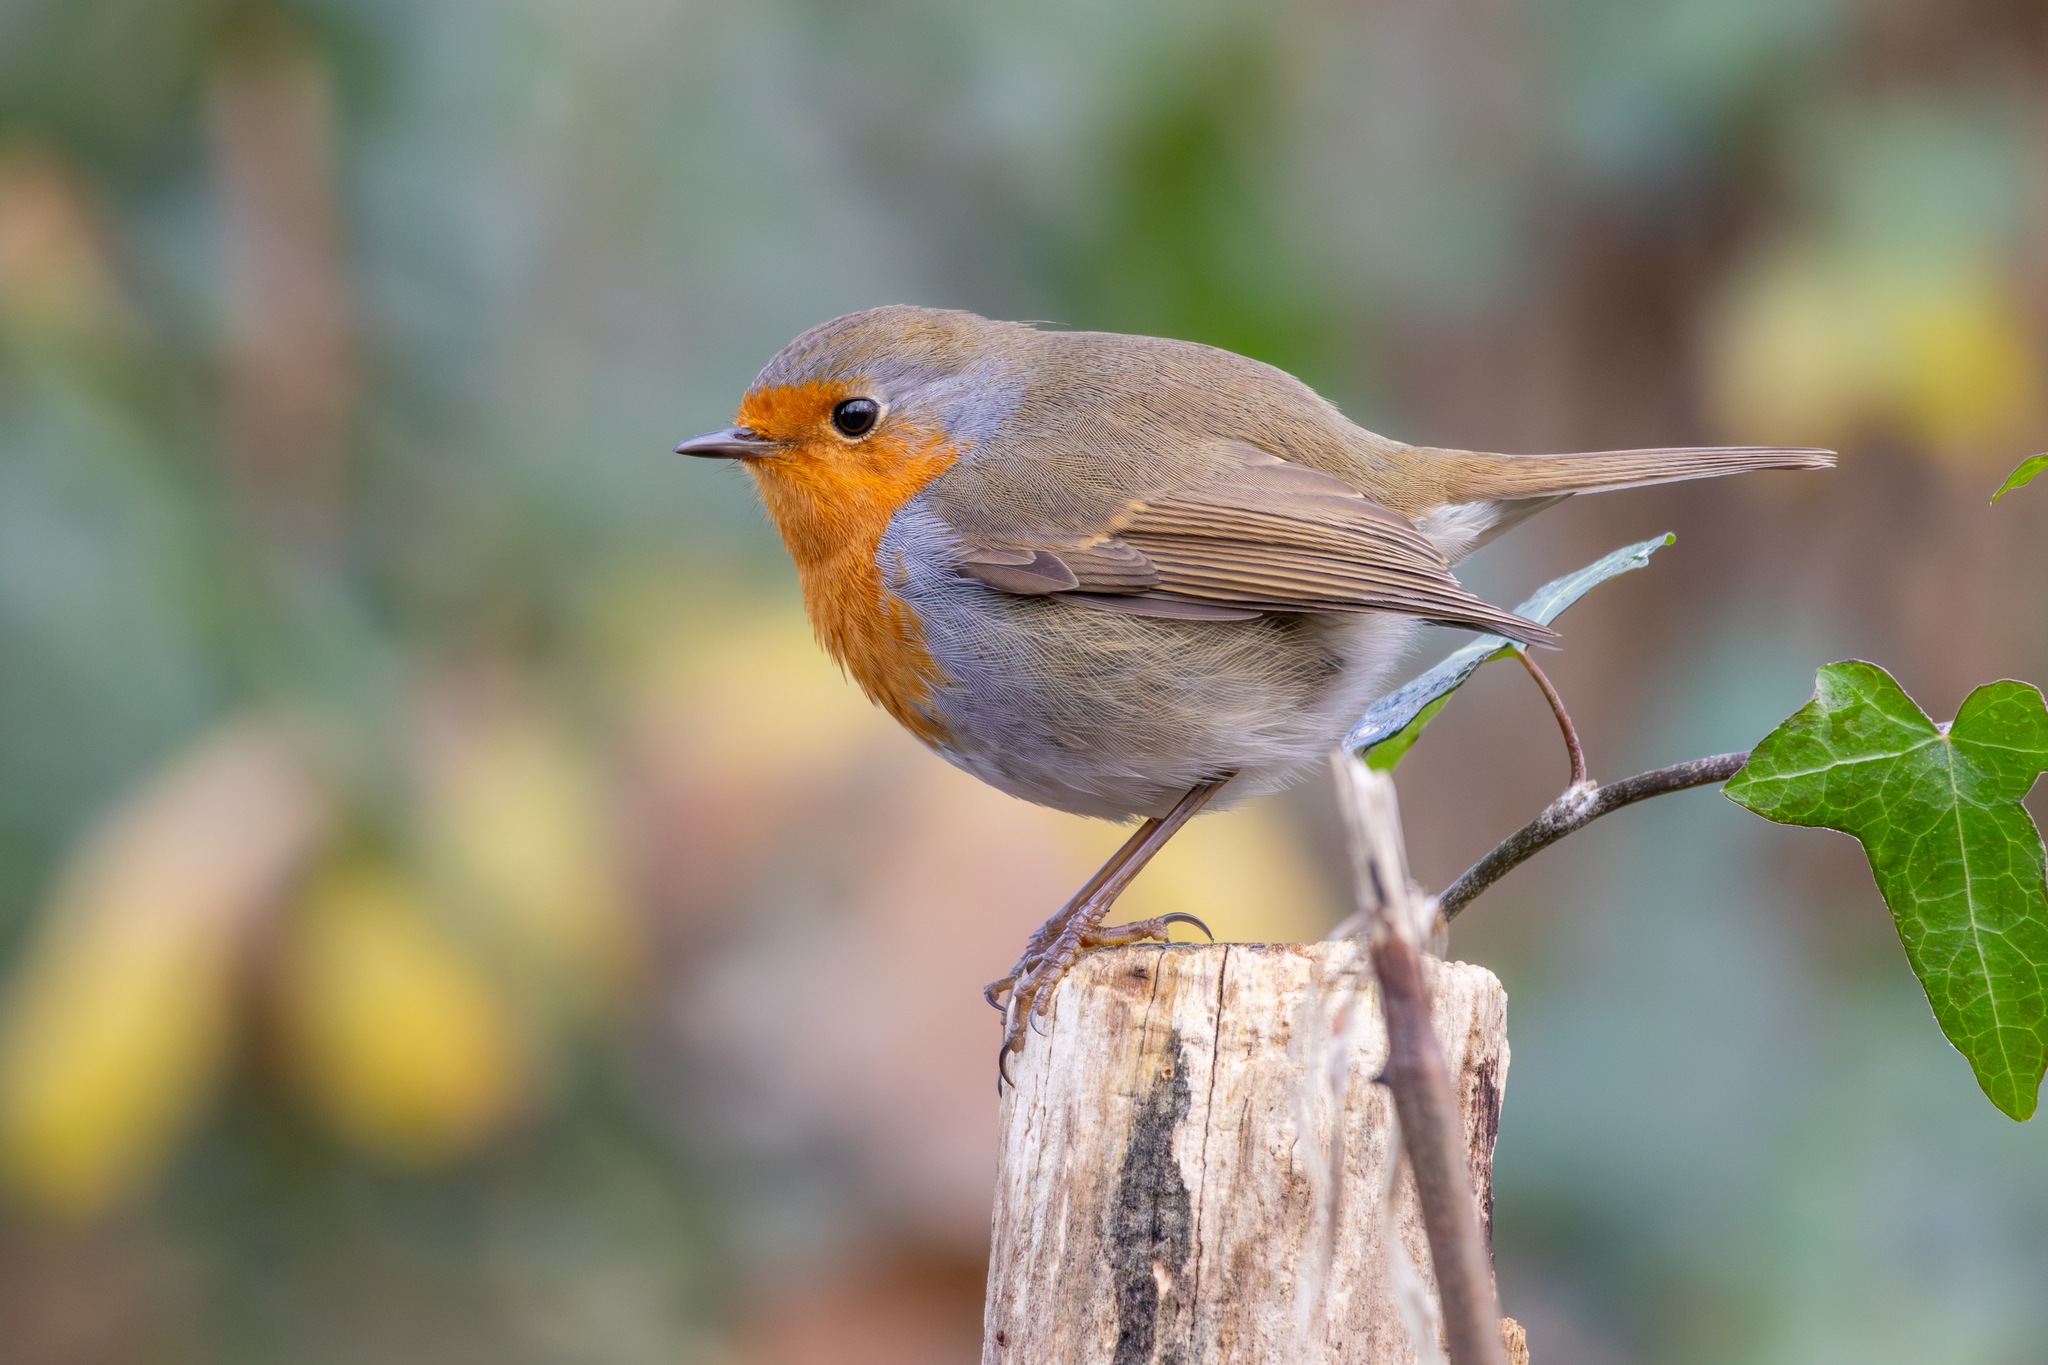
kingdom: Animalia
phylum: Chordata
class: Aves
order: Passeriformes
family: Muscicapidae
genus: Erithacus
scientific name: Erithacus rubecula
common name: European robin
